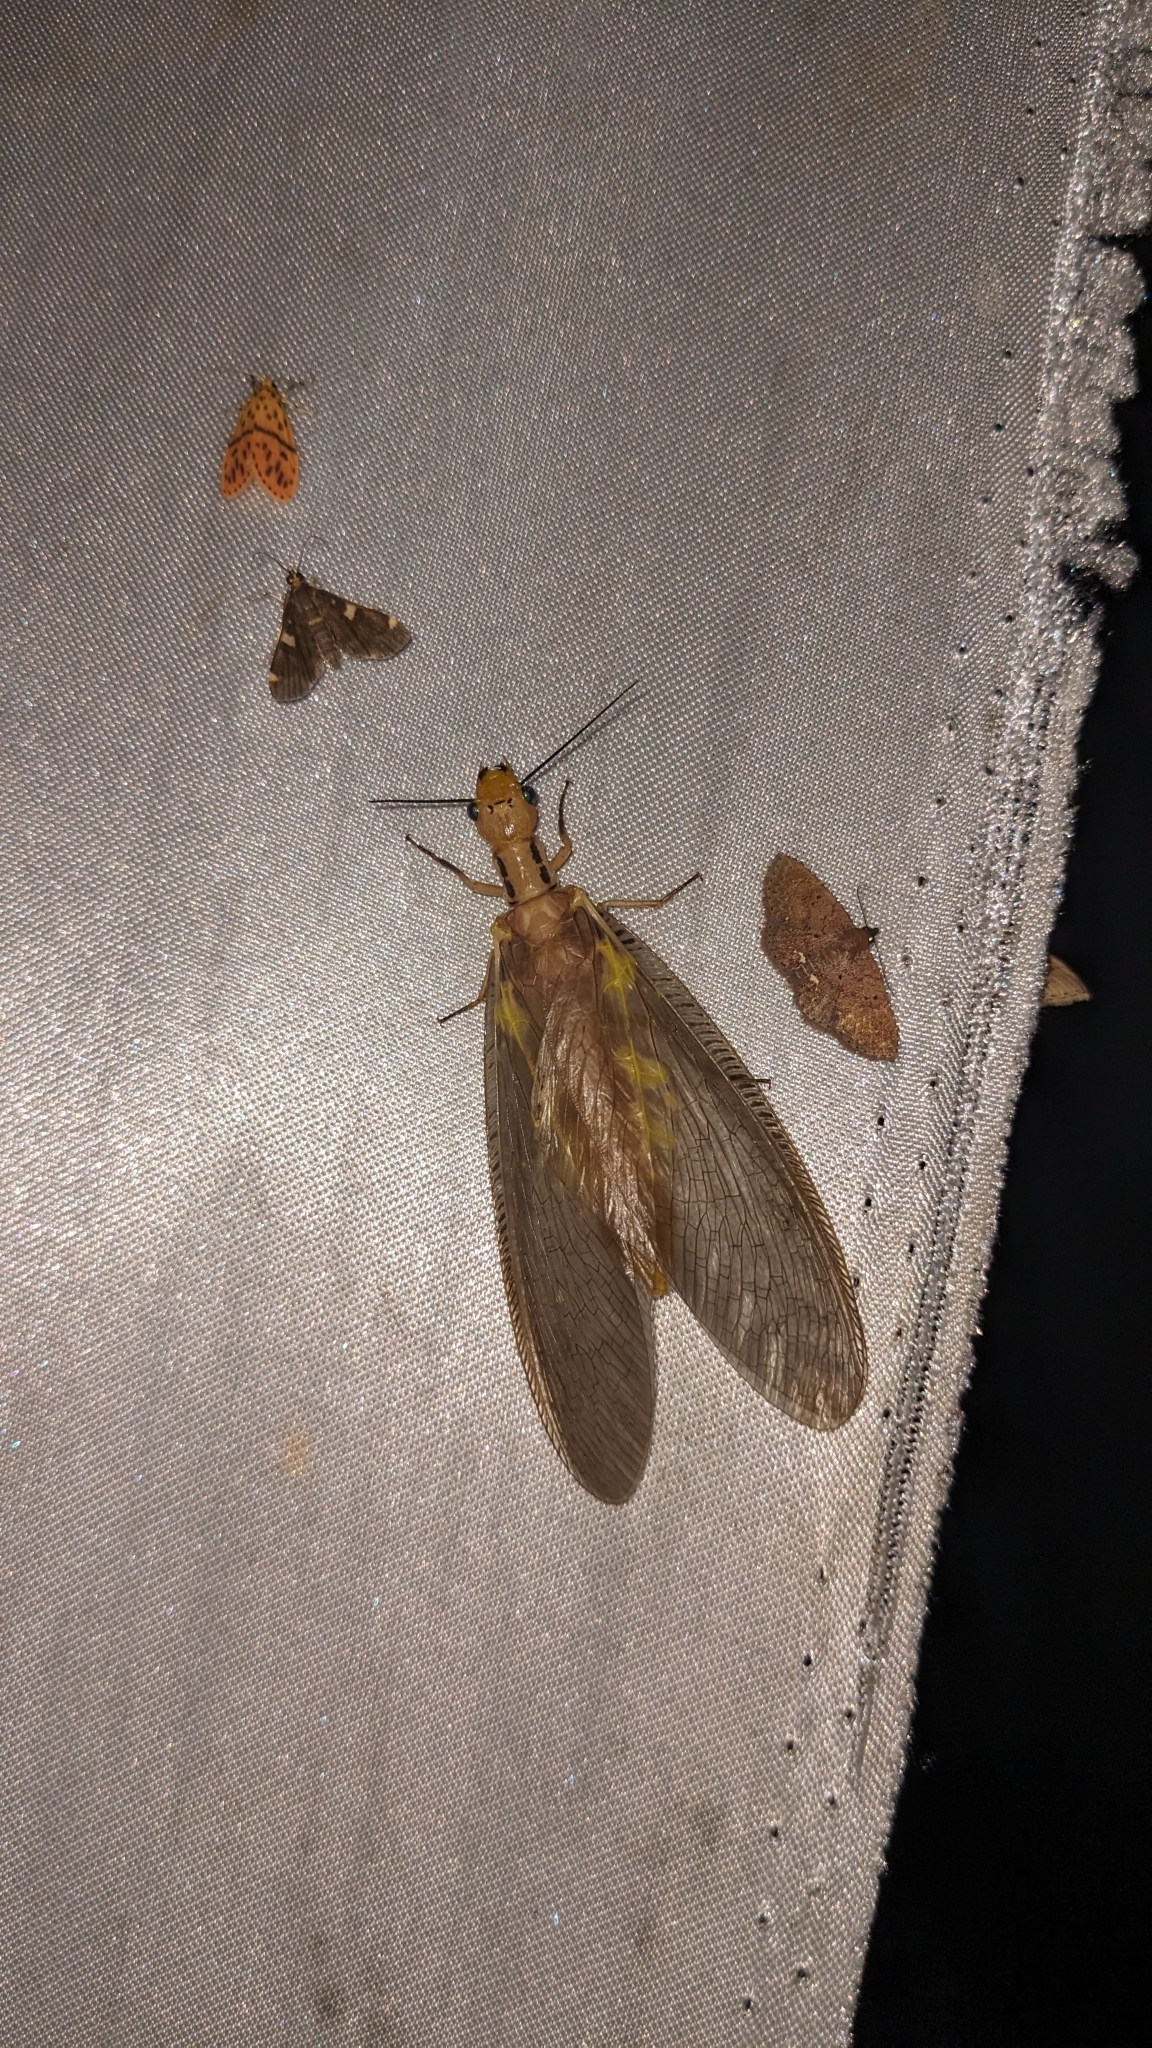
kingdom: Animalia
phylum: Arthropoda
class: Insecta
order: Megaloptera
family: Corydalidae
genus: Protohermes
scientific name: Protohermes costalis
